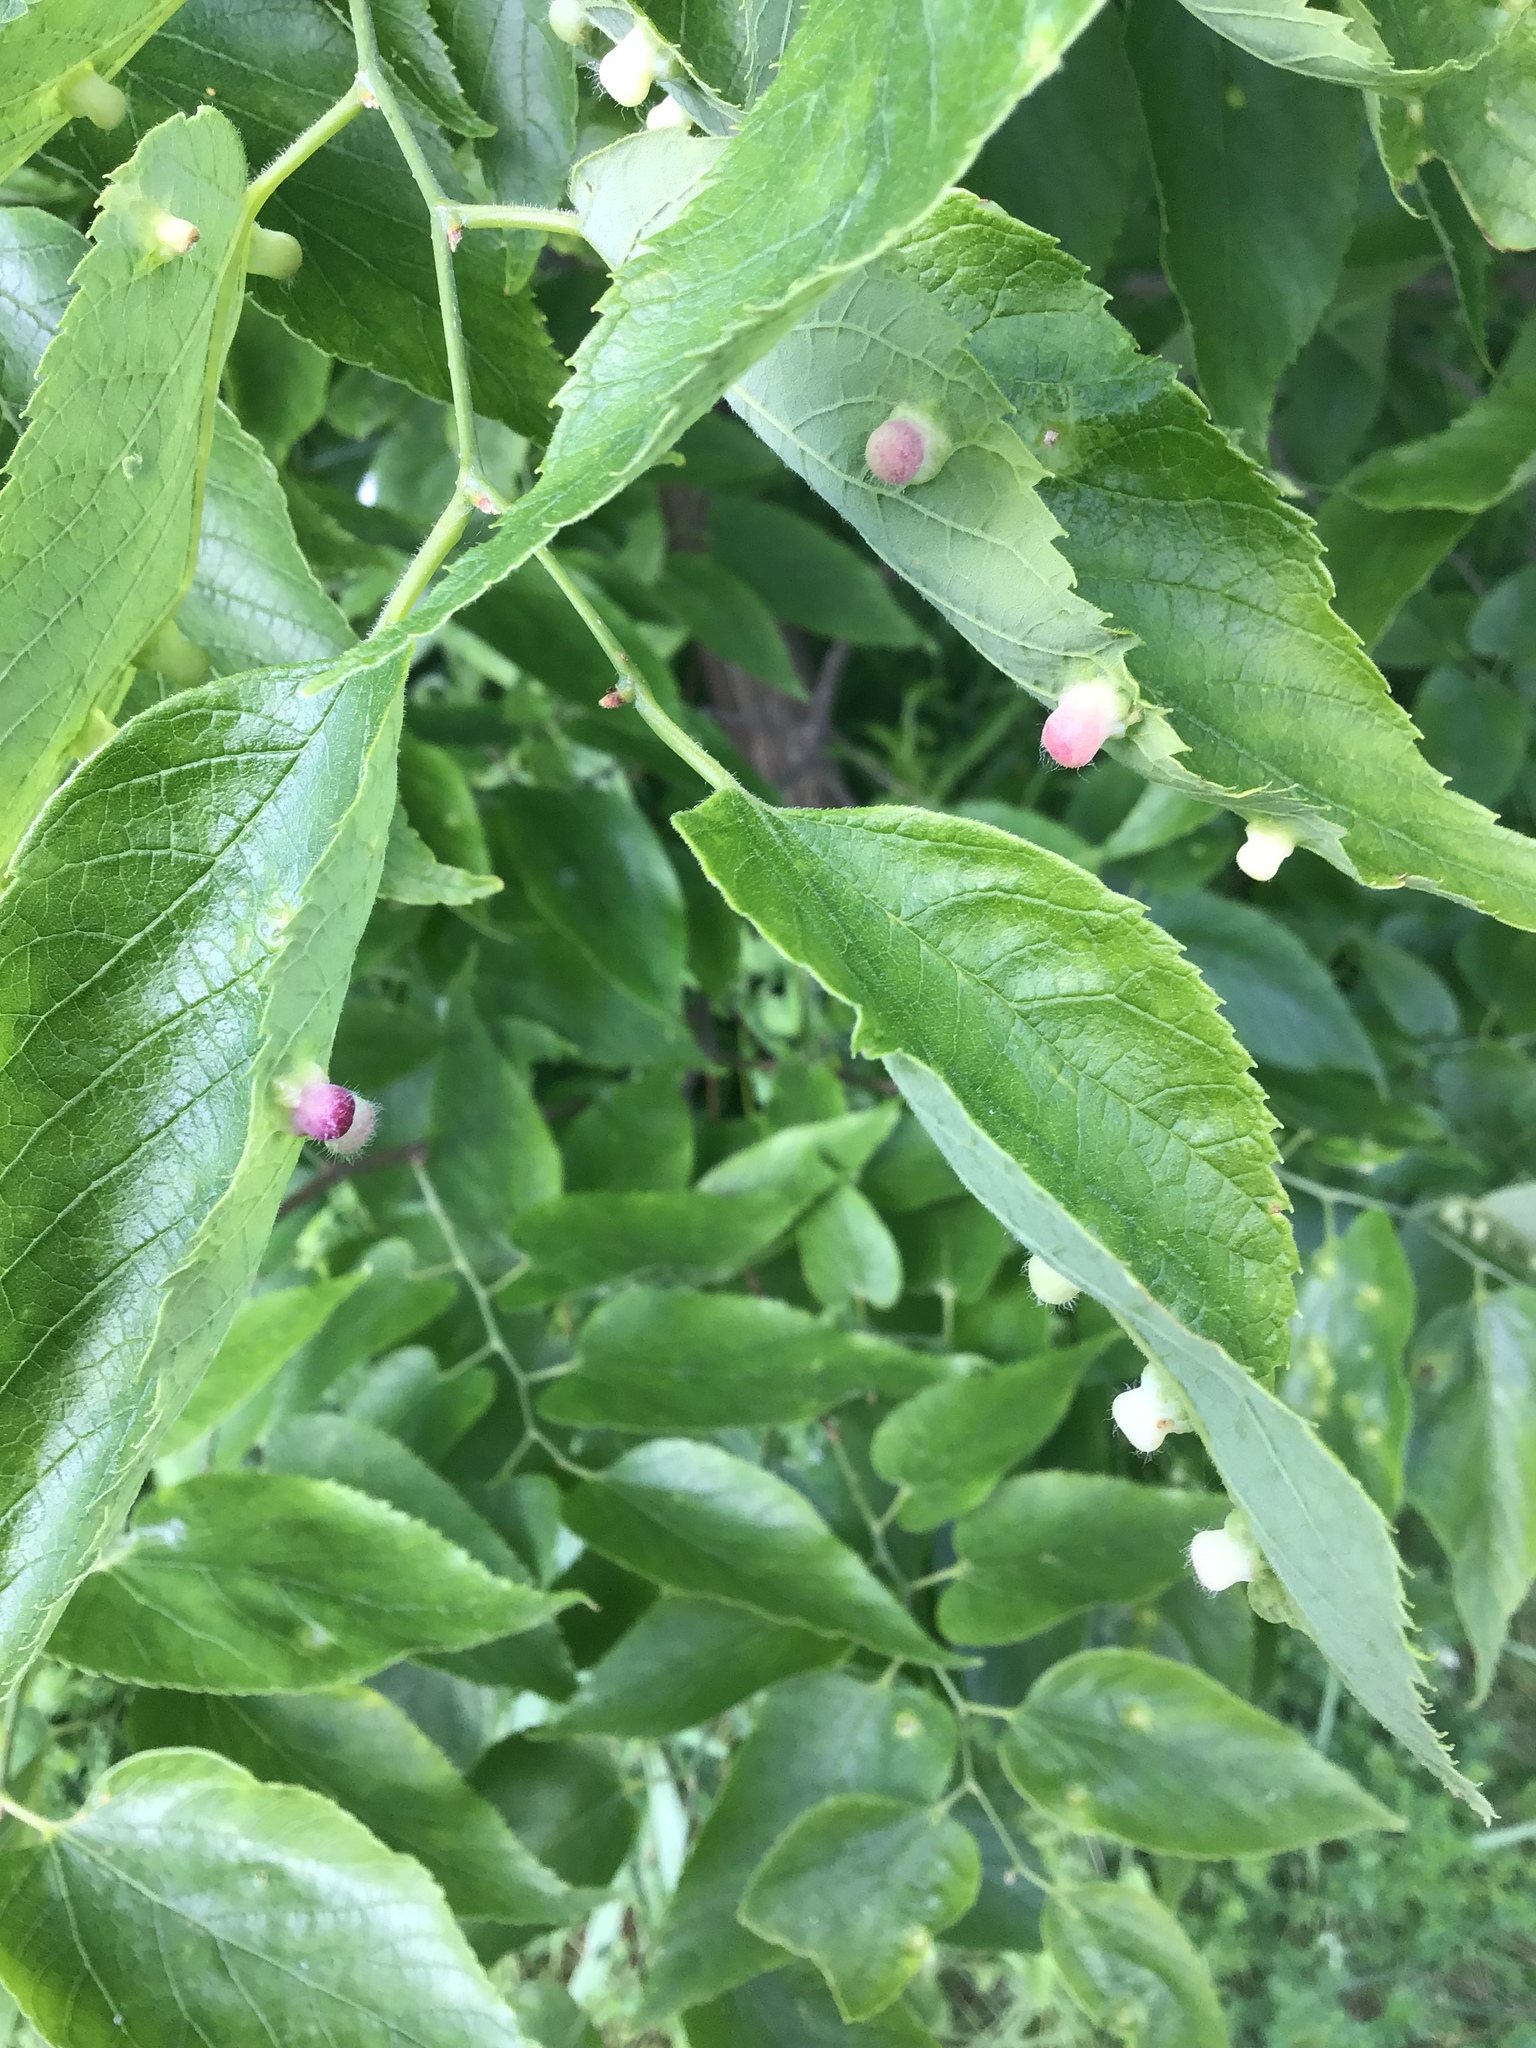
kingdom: Animalia
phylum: Arthropoda
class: Insecta
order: Hemiptera
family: Aphalaridae
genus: Pachypsylla
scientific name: Pachypsylla celtidismamma
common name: Hackberry nipplegall psyllid
